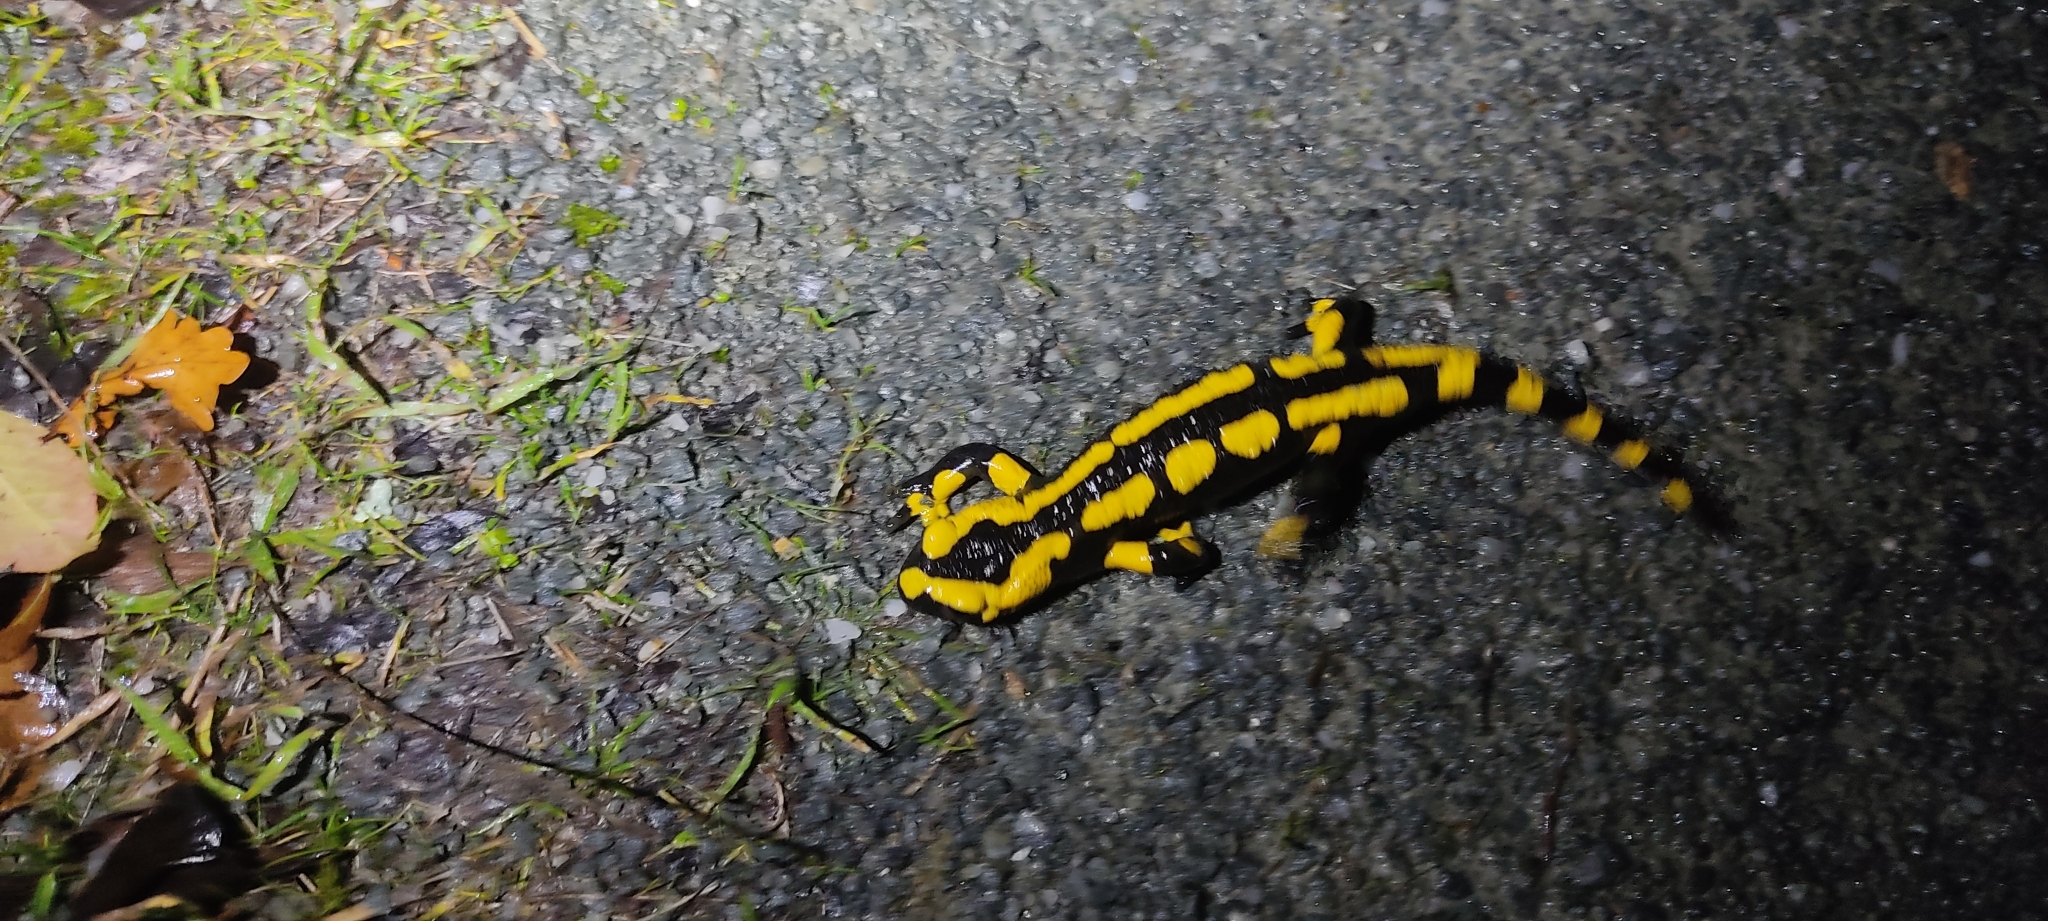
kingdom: Animalia
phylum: Chordata
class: Amphibia
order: Caudata
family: Salamandridae
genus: Salamandra
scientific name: Salamandra salamandra
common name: Fire salamander
